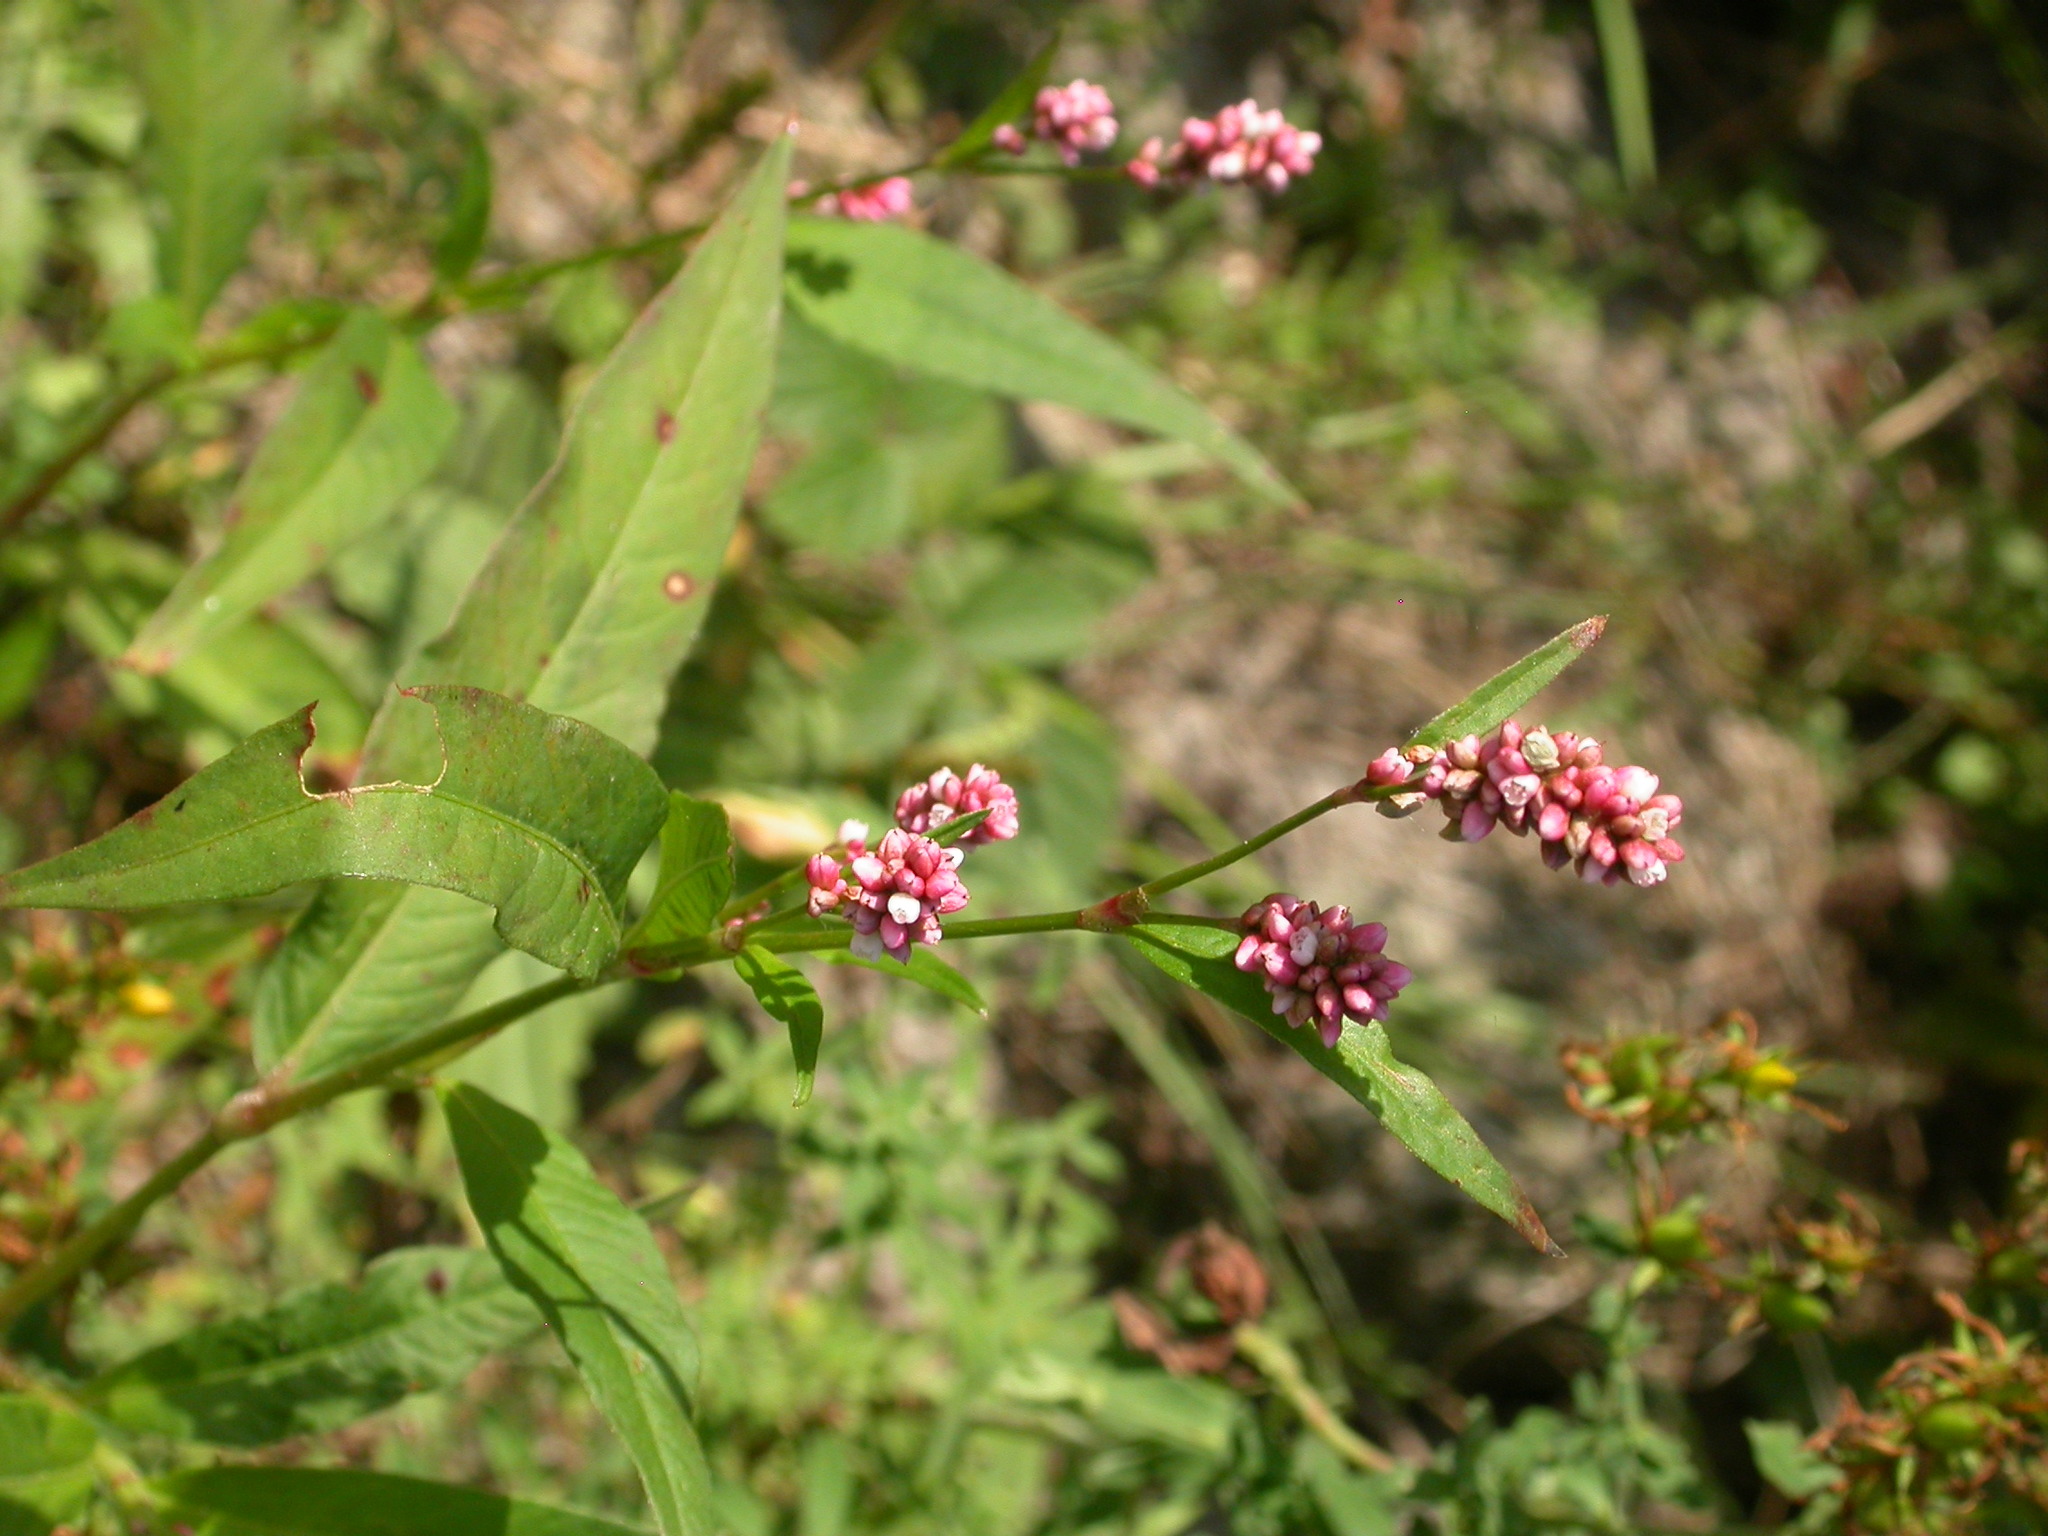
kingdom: Plantae
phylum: Tracheophyta
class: Magnoliopsida
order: Caryophyllales
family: Polygonaceae
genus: Persicaria
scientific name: Persicaria maculosa
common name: Redshank
